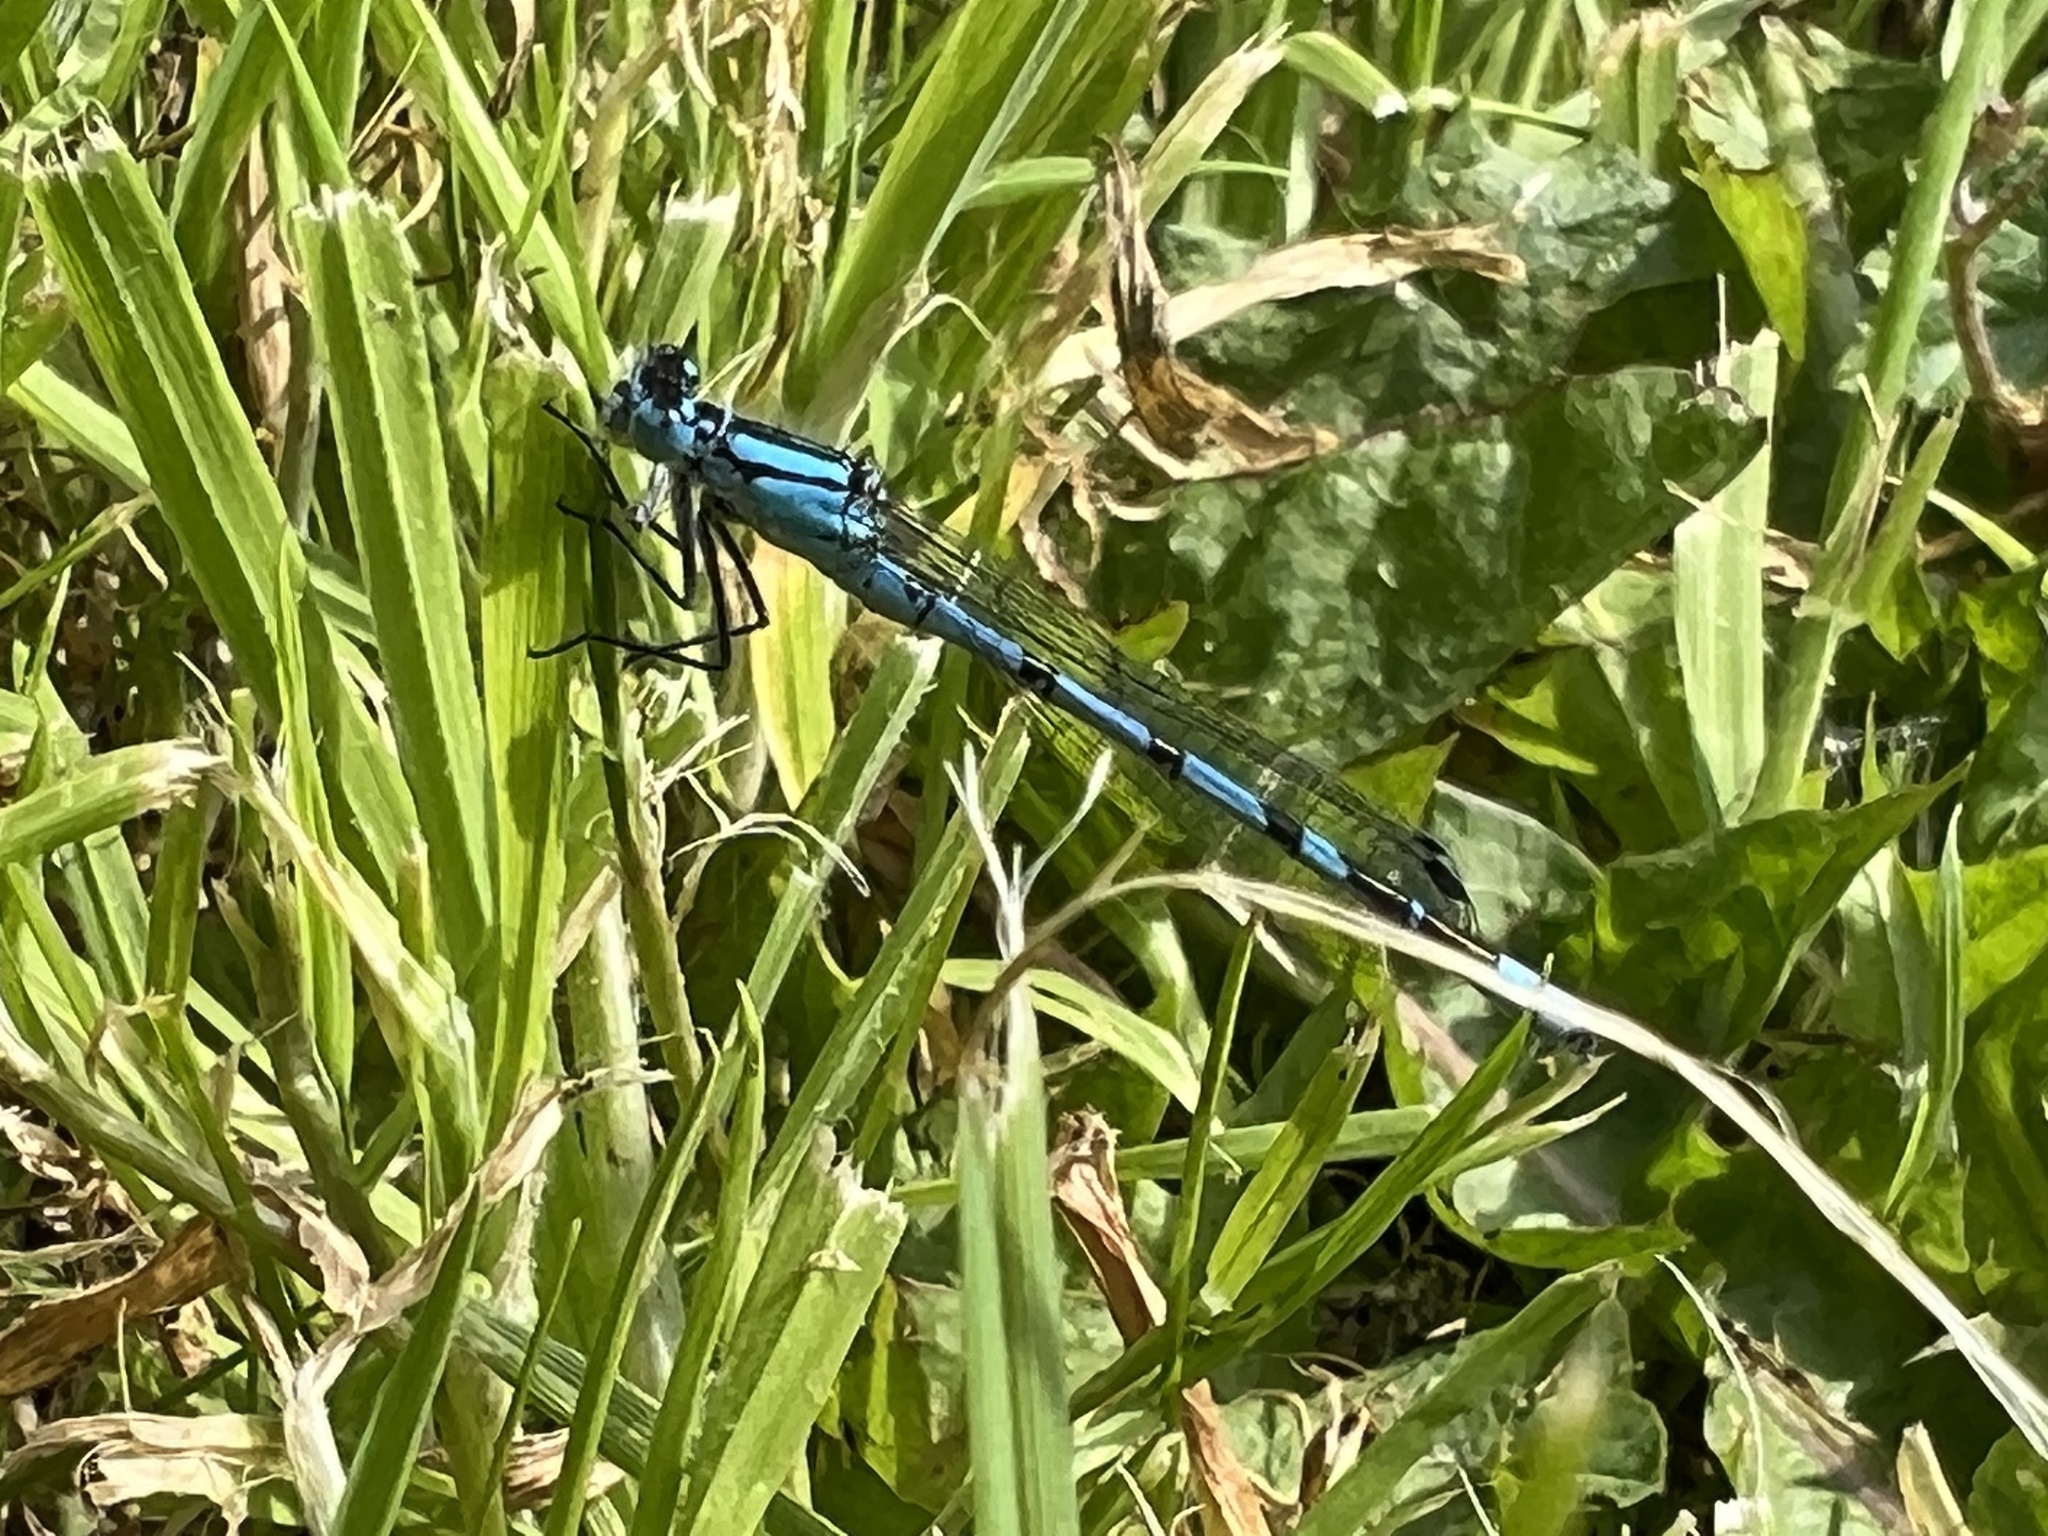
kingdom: Animalia
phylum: Arthropoda
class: Insecta
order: Odonata
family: Coenagrionidae
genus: Enallagma
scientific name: Enallagma cyathigerum
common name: Common blue damselfly
